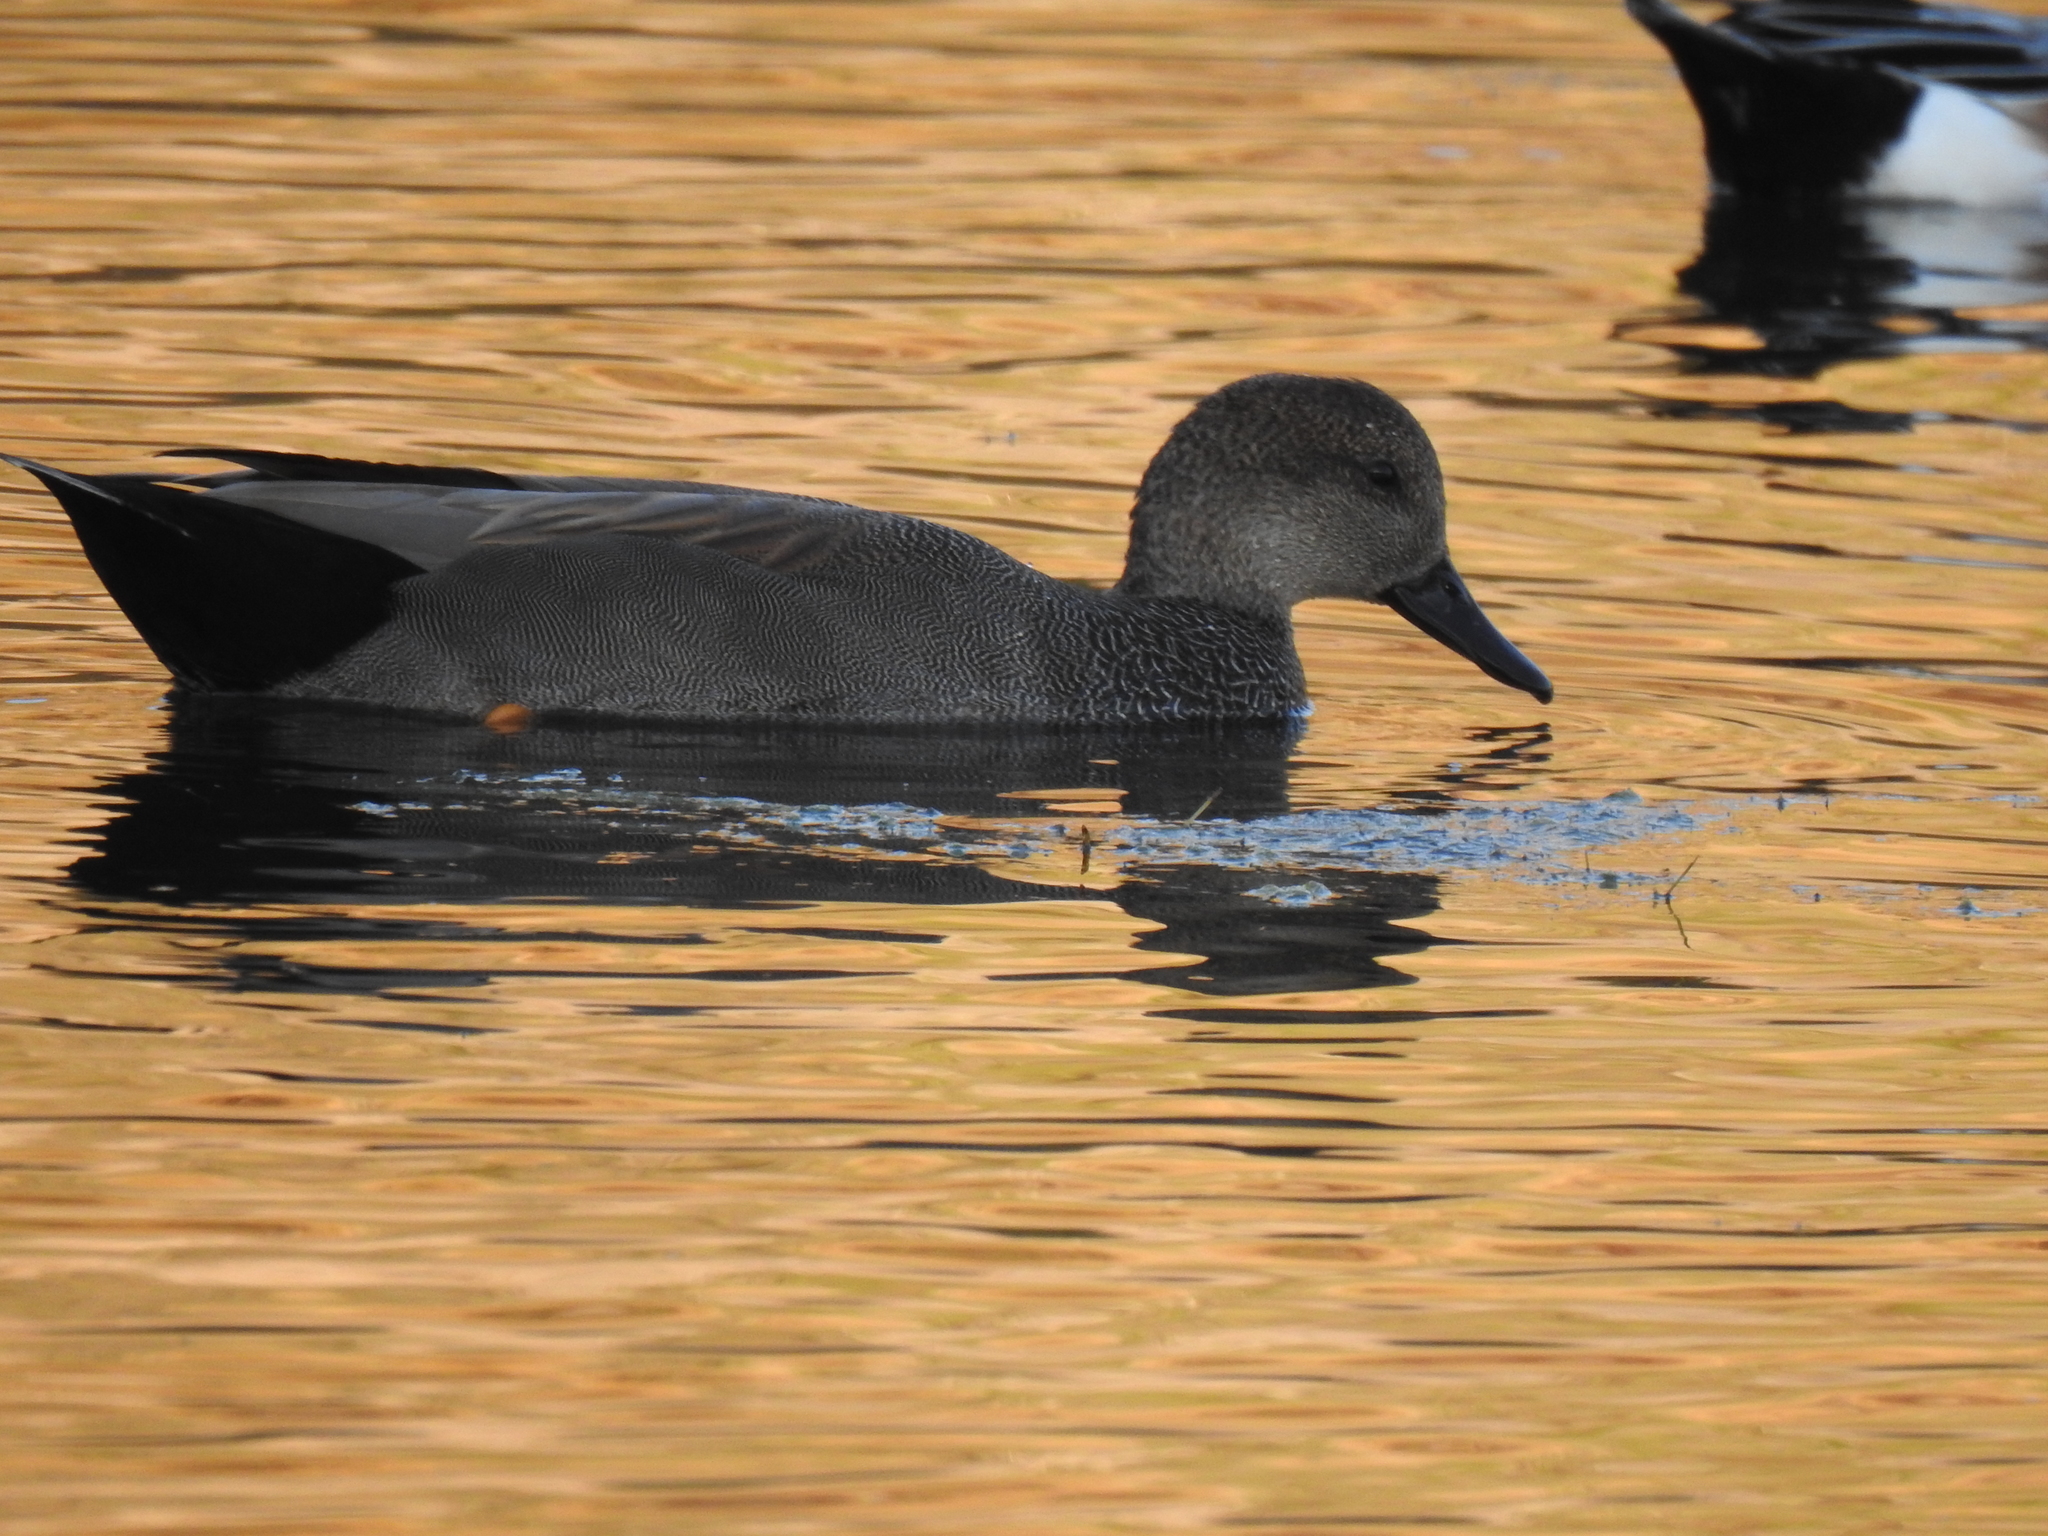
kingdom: Animalia
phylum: Chordata
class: Aves
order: Anseriformes
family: Anatidae
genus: Mareca
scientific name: Mareca strepera
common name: Gadwall
